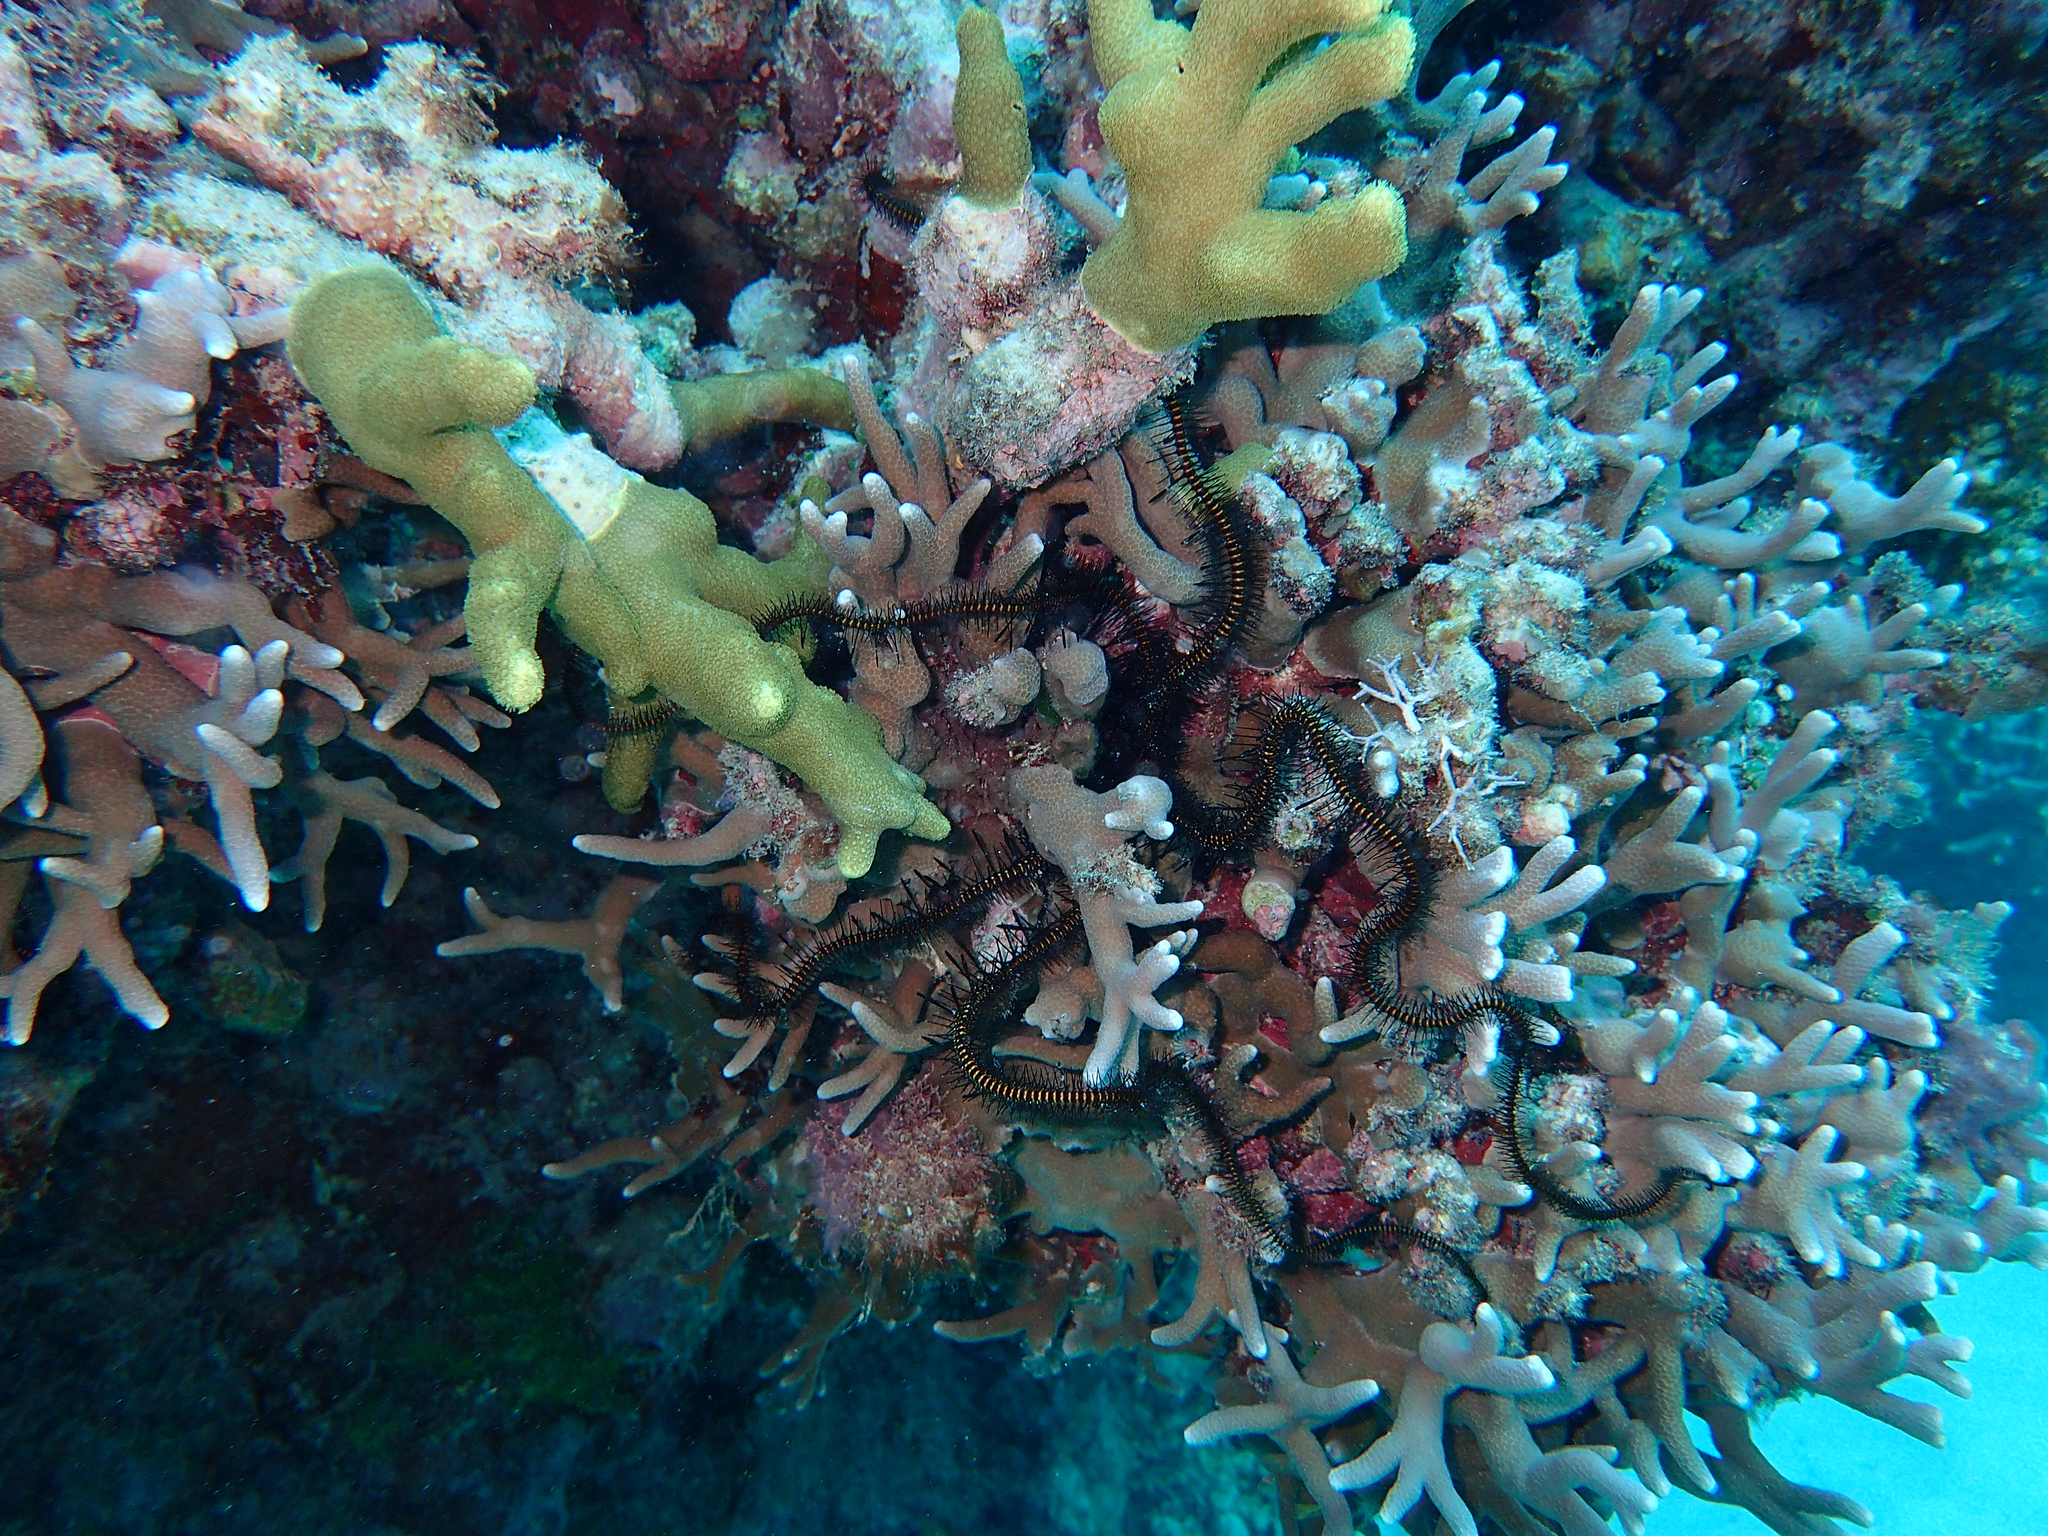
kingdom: Animalia
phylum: Echinodermata
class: Ophiuroidea
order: Ophiacanthida
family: Ophiocomidae
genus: Breviturma
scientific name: Breviturma pica
